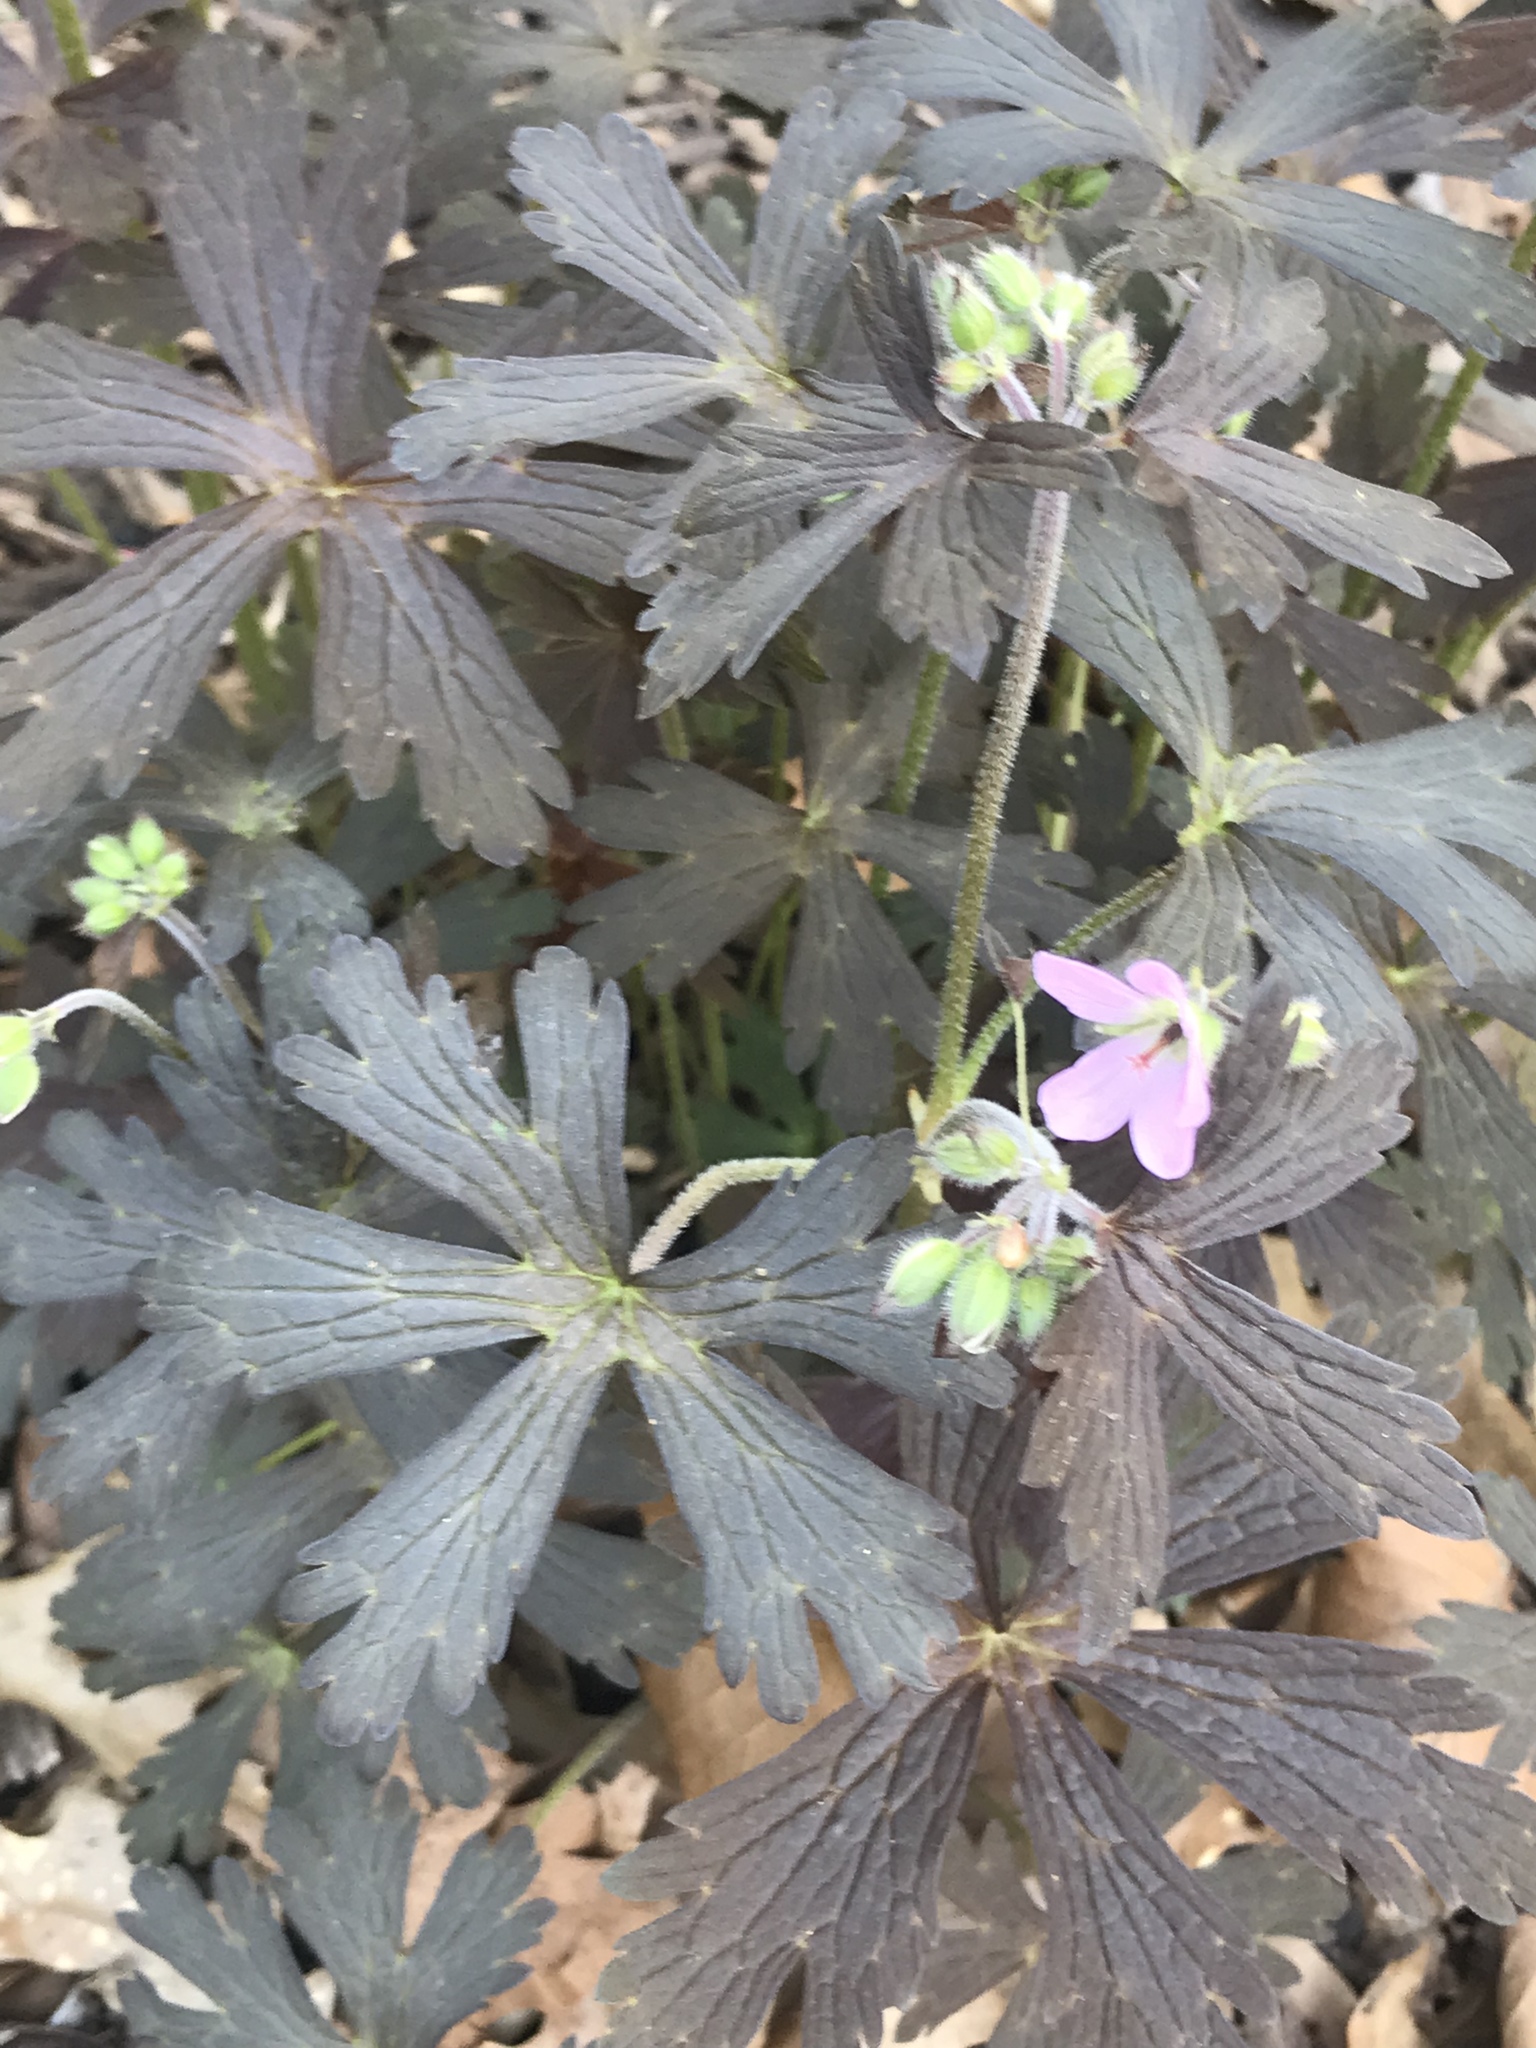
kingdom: Plantae
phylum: Tracheophyta
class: Magnoliopsida
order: Geraniales
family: Geraniaceae
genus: Geranium
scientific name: Geranium maculatum
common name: Spotted geranium
